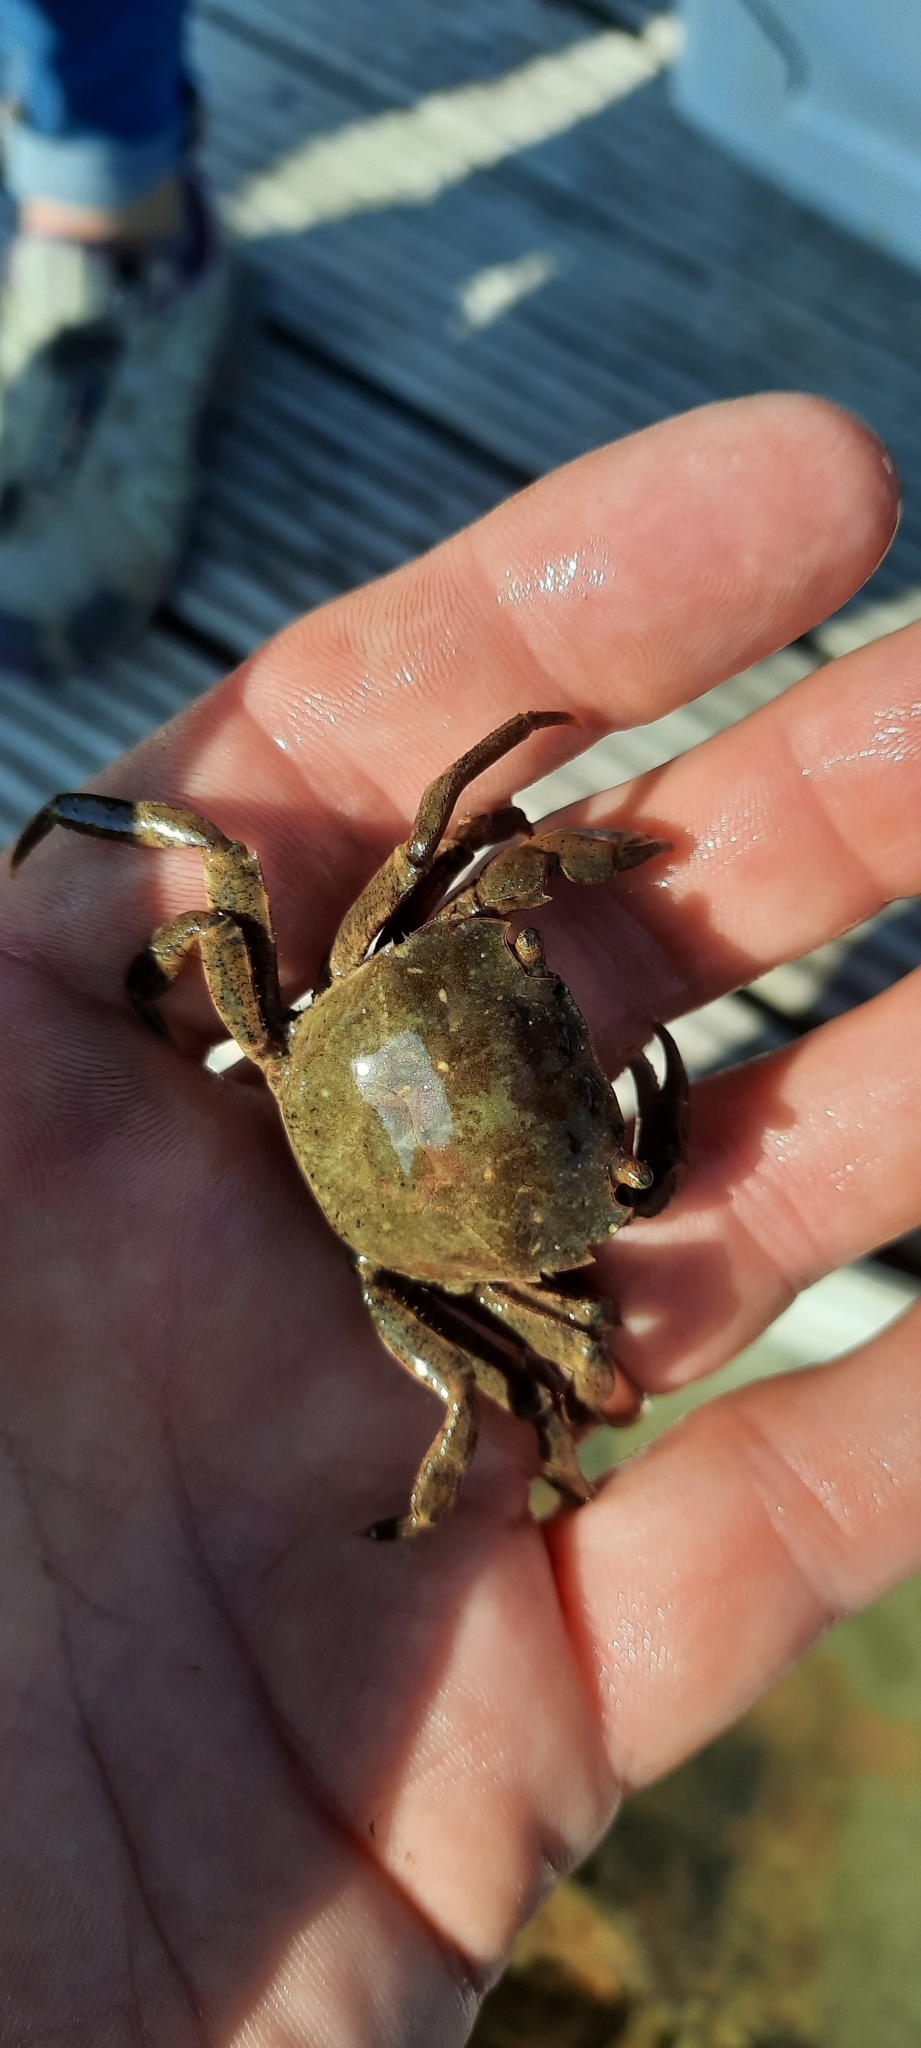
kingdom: Animalia
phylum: Arthropoda
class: Malacostraca
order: Decapoda
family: Varunidae
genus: Hemigrapsus
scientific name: Hemigrapsus takanoi
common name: Asian brush crab
